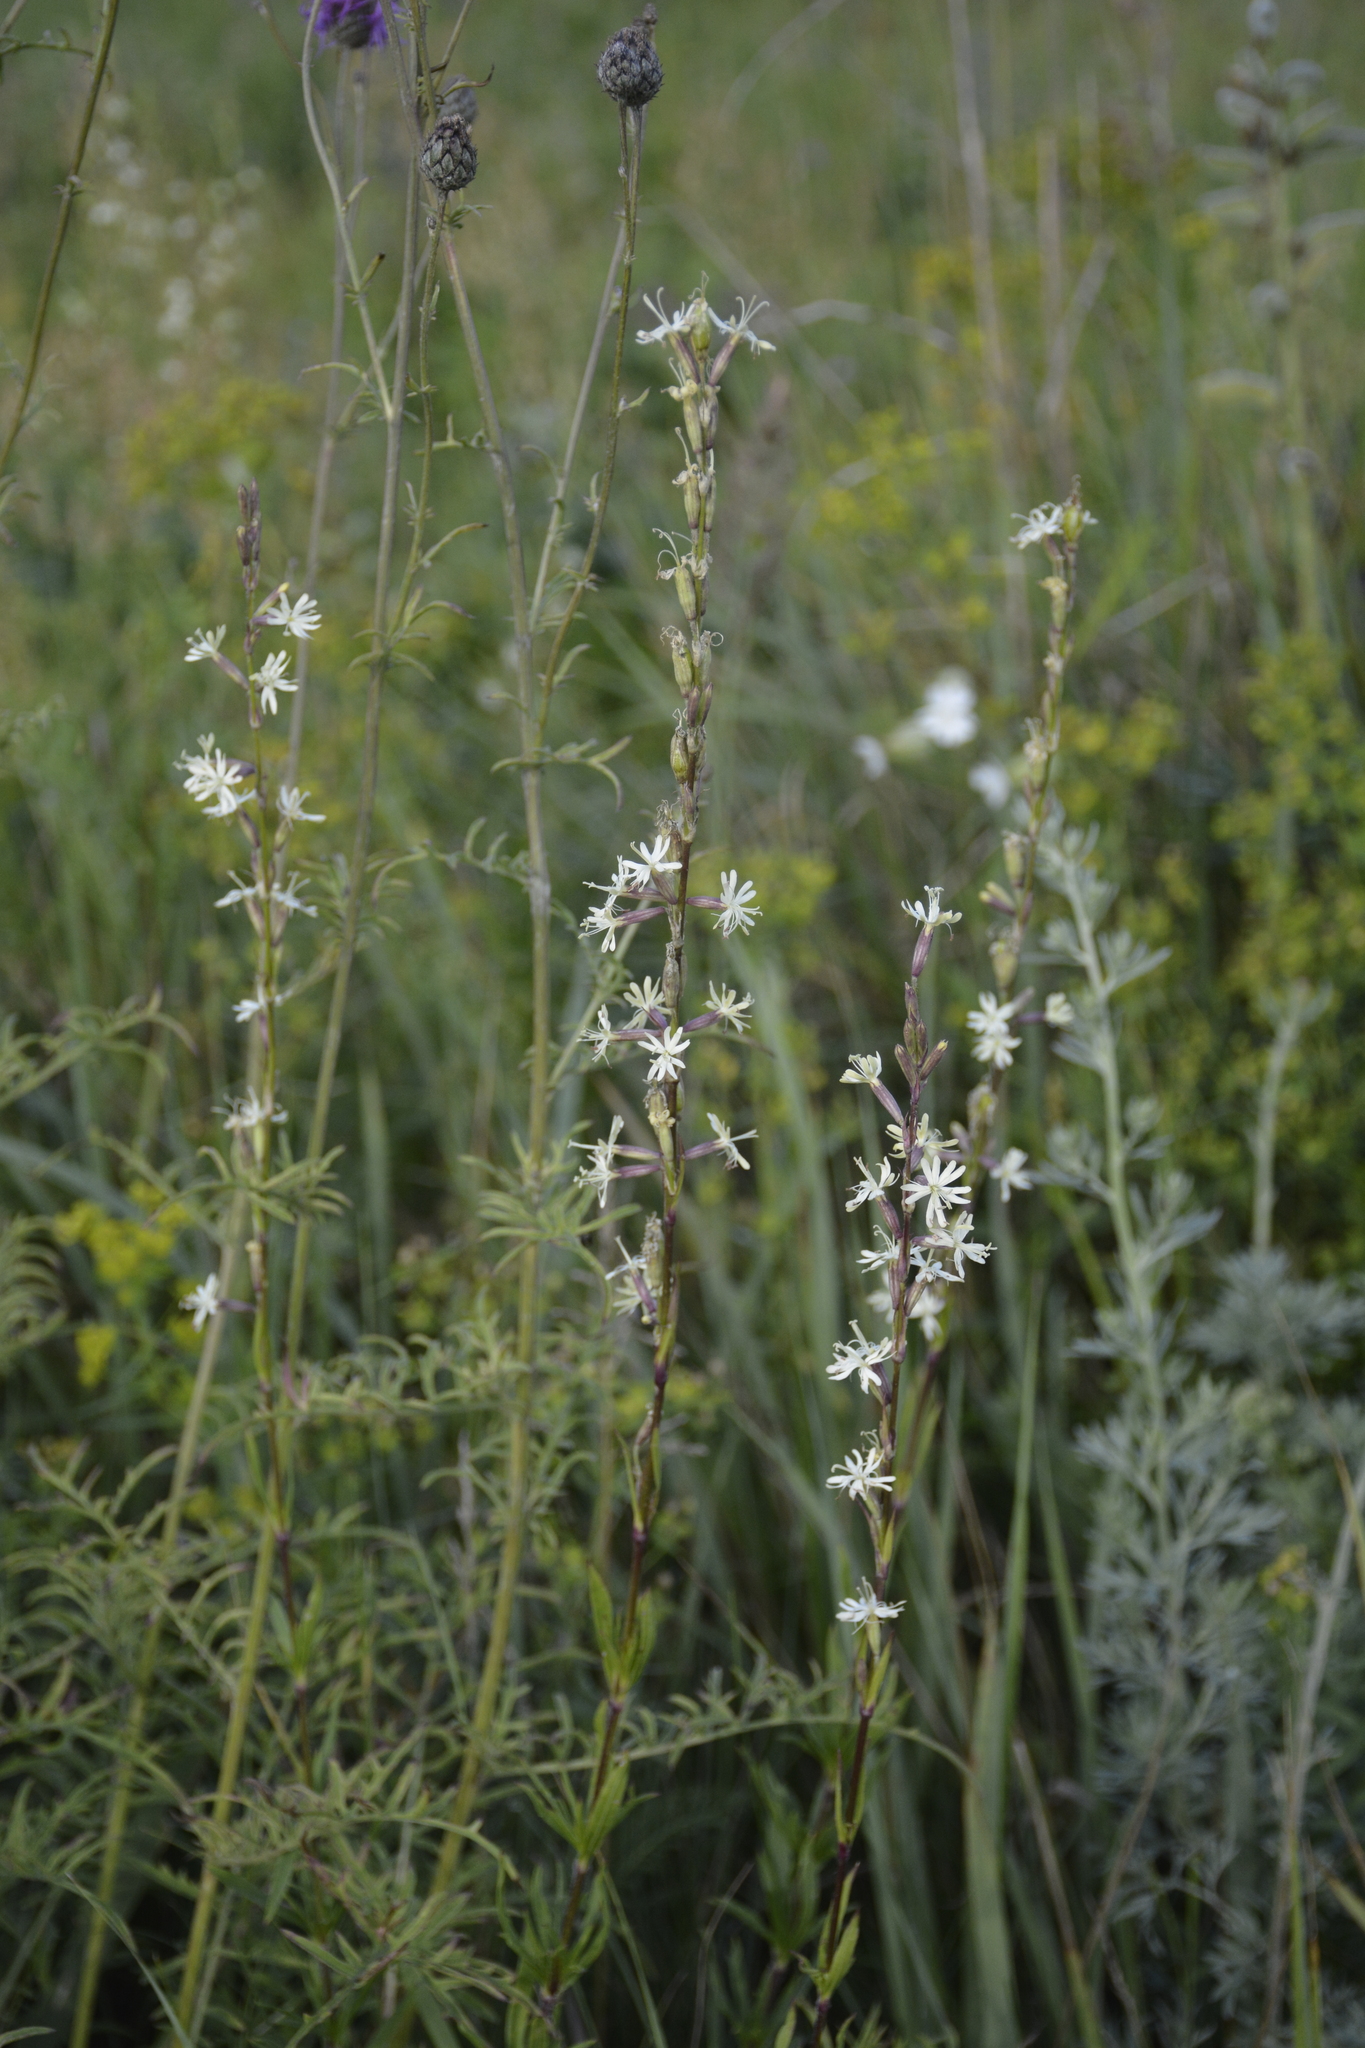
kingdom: Plantae
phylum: Tracheophyta
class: Magnoliopsida
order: Caryophyllales
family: Caryophyllaceae
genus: Silene
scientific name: Silene tatarica
